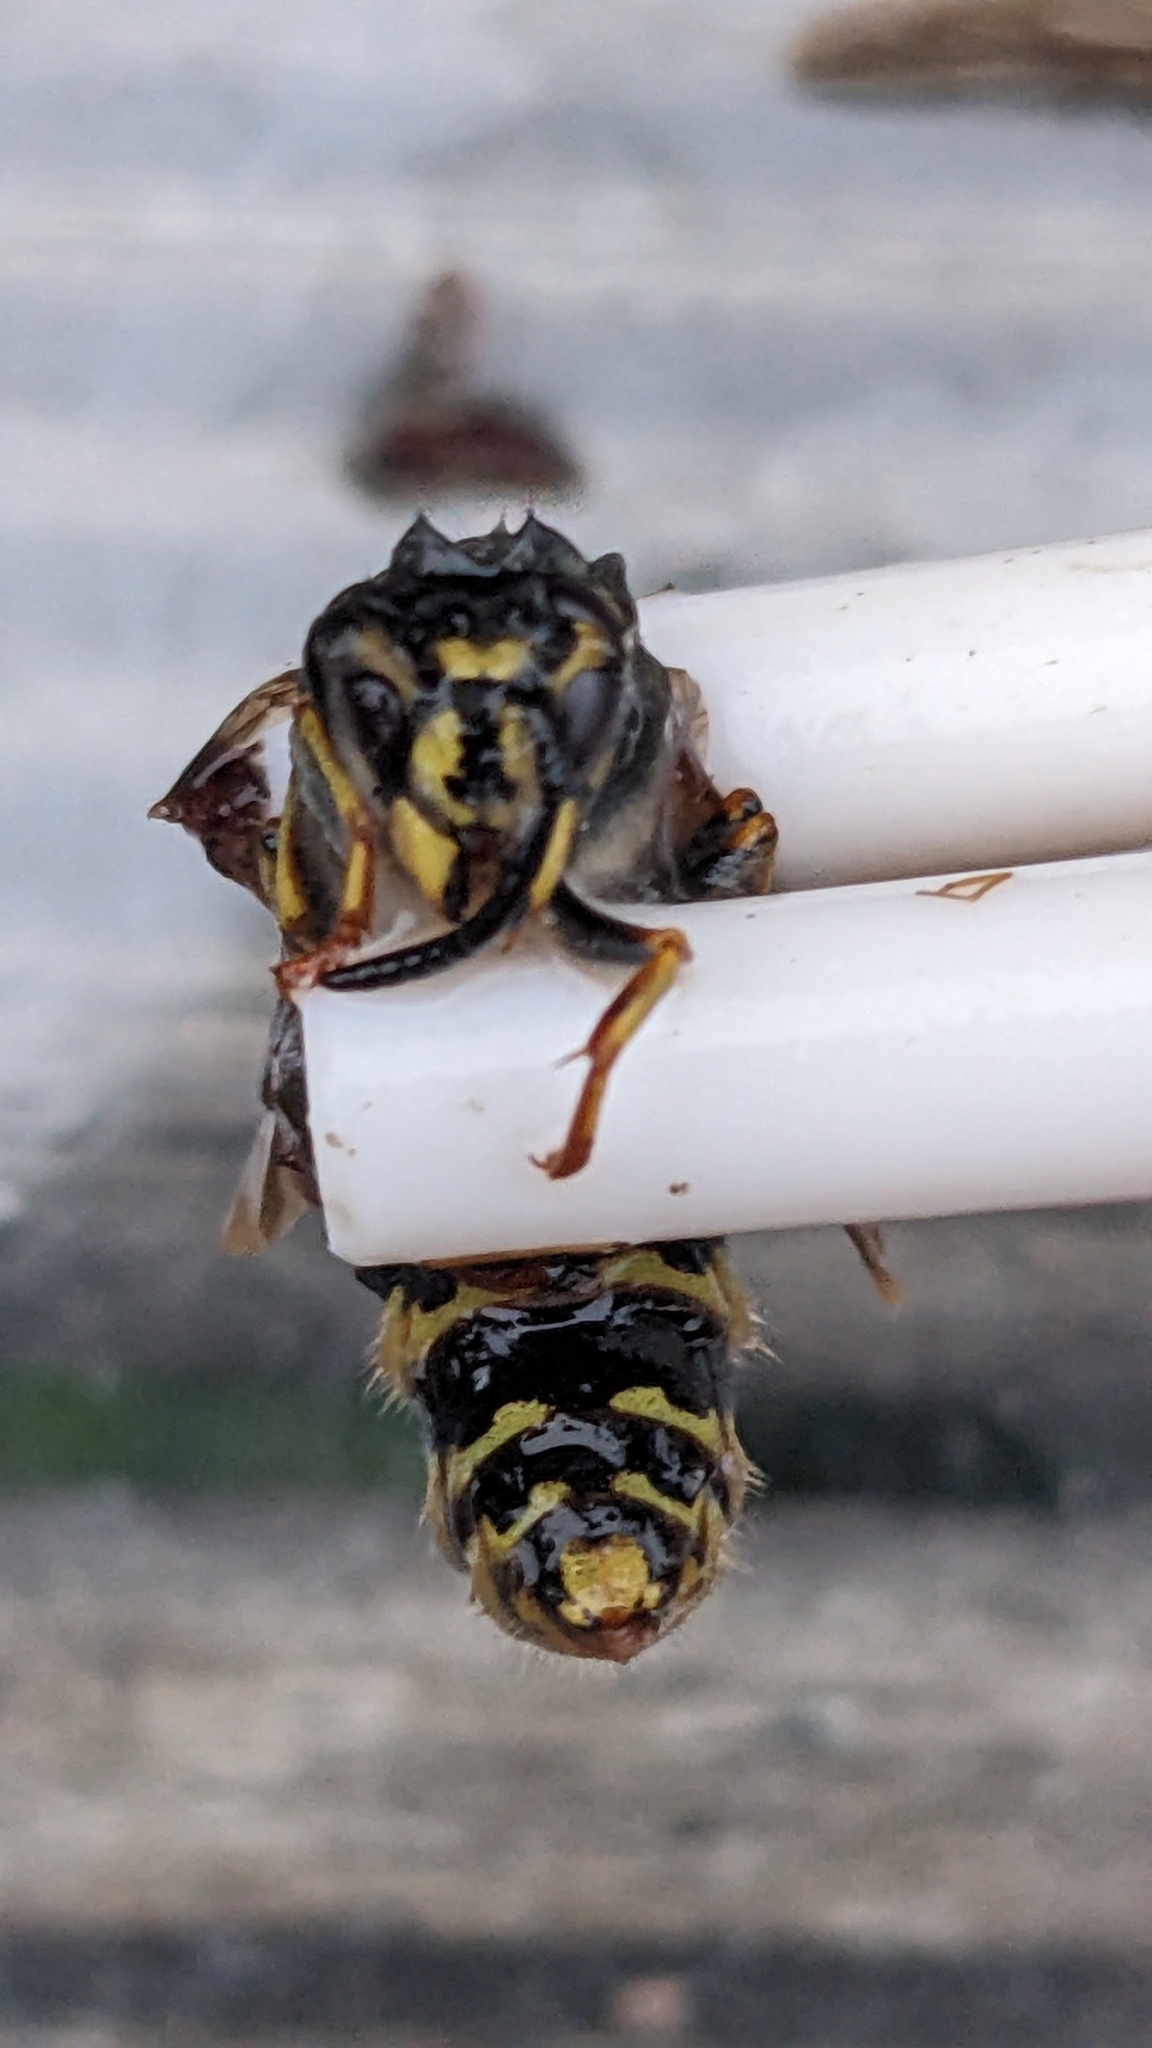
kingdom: Animalia
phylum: Arthropoda
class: Insecta
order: Hymenoptera
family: Vespidae
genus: Vespula
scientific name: Vespula vulgaris
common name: Common wasp
